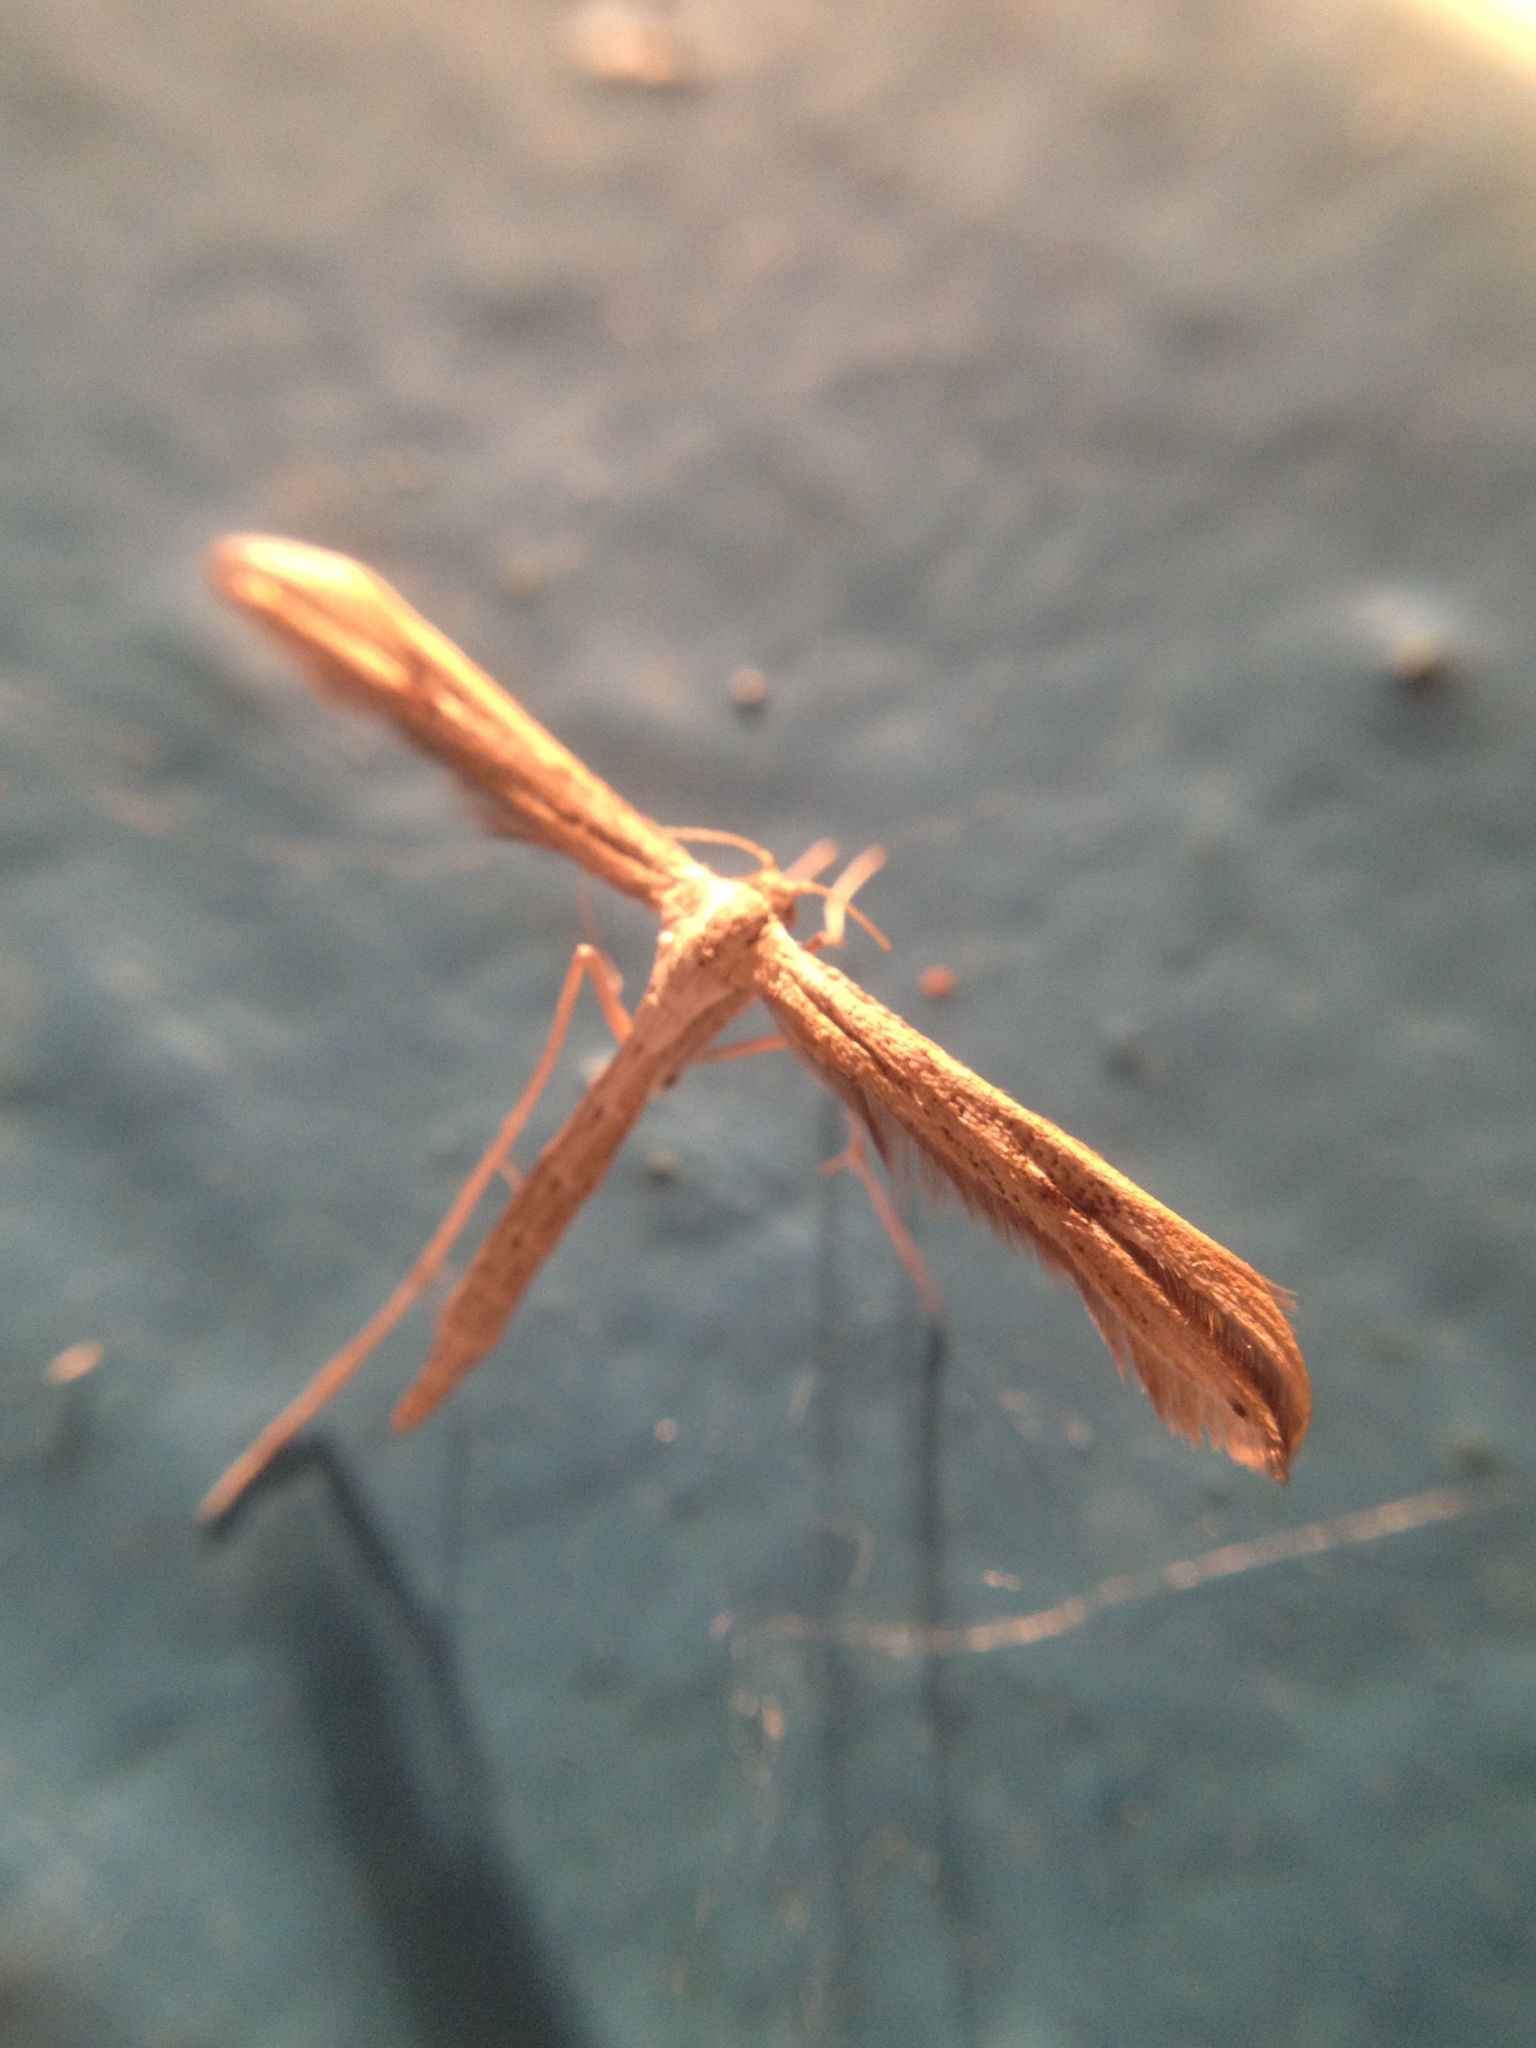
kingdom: Animalia
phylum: Arthropoda
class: Insecta
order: Lepidoptera
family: Pterophoridae
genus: Emmelina
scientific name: Emmelina monodactyla
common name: Common plume
